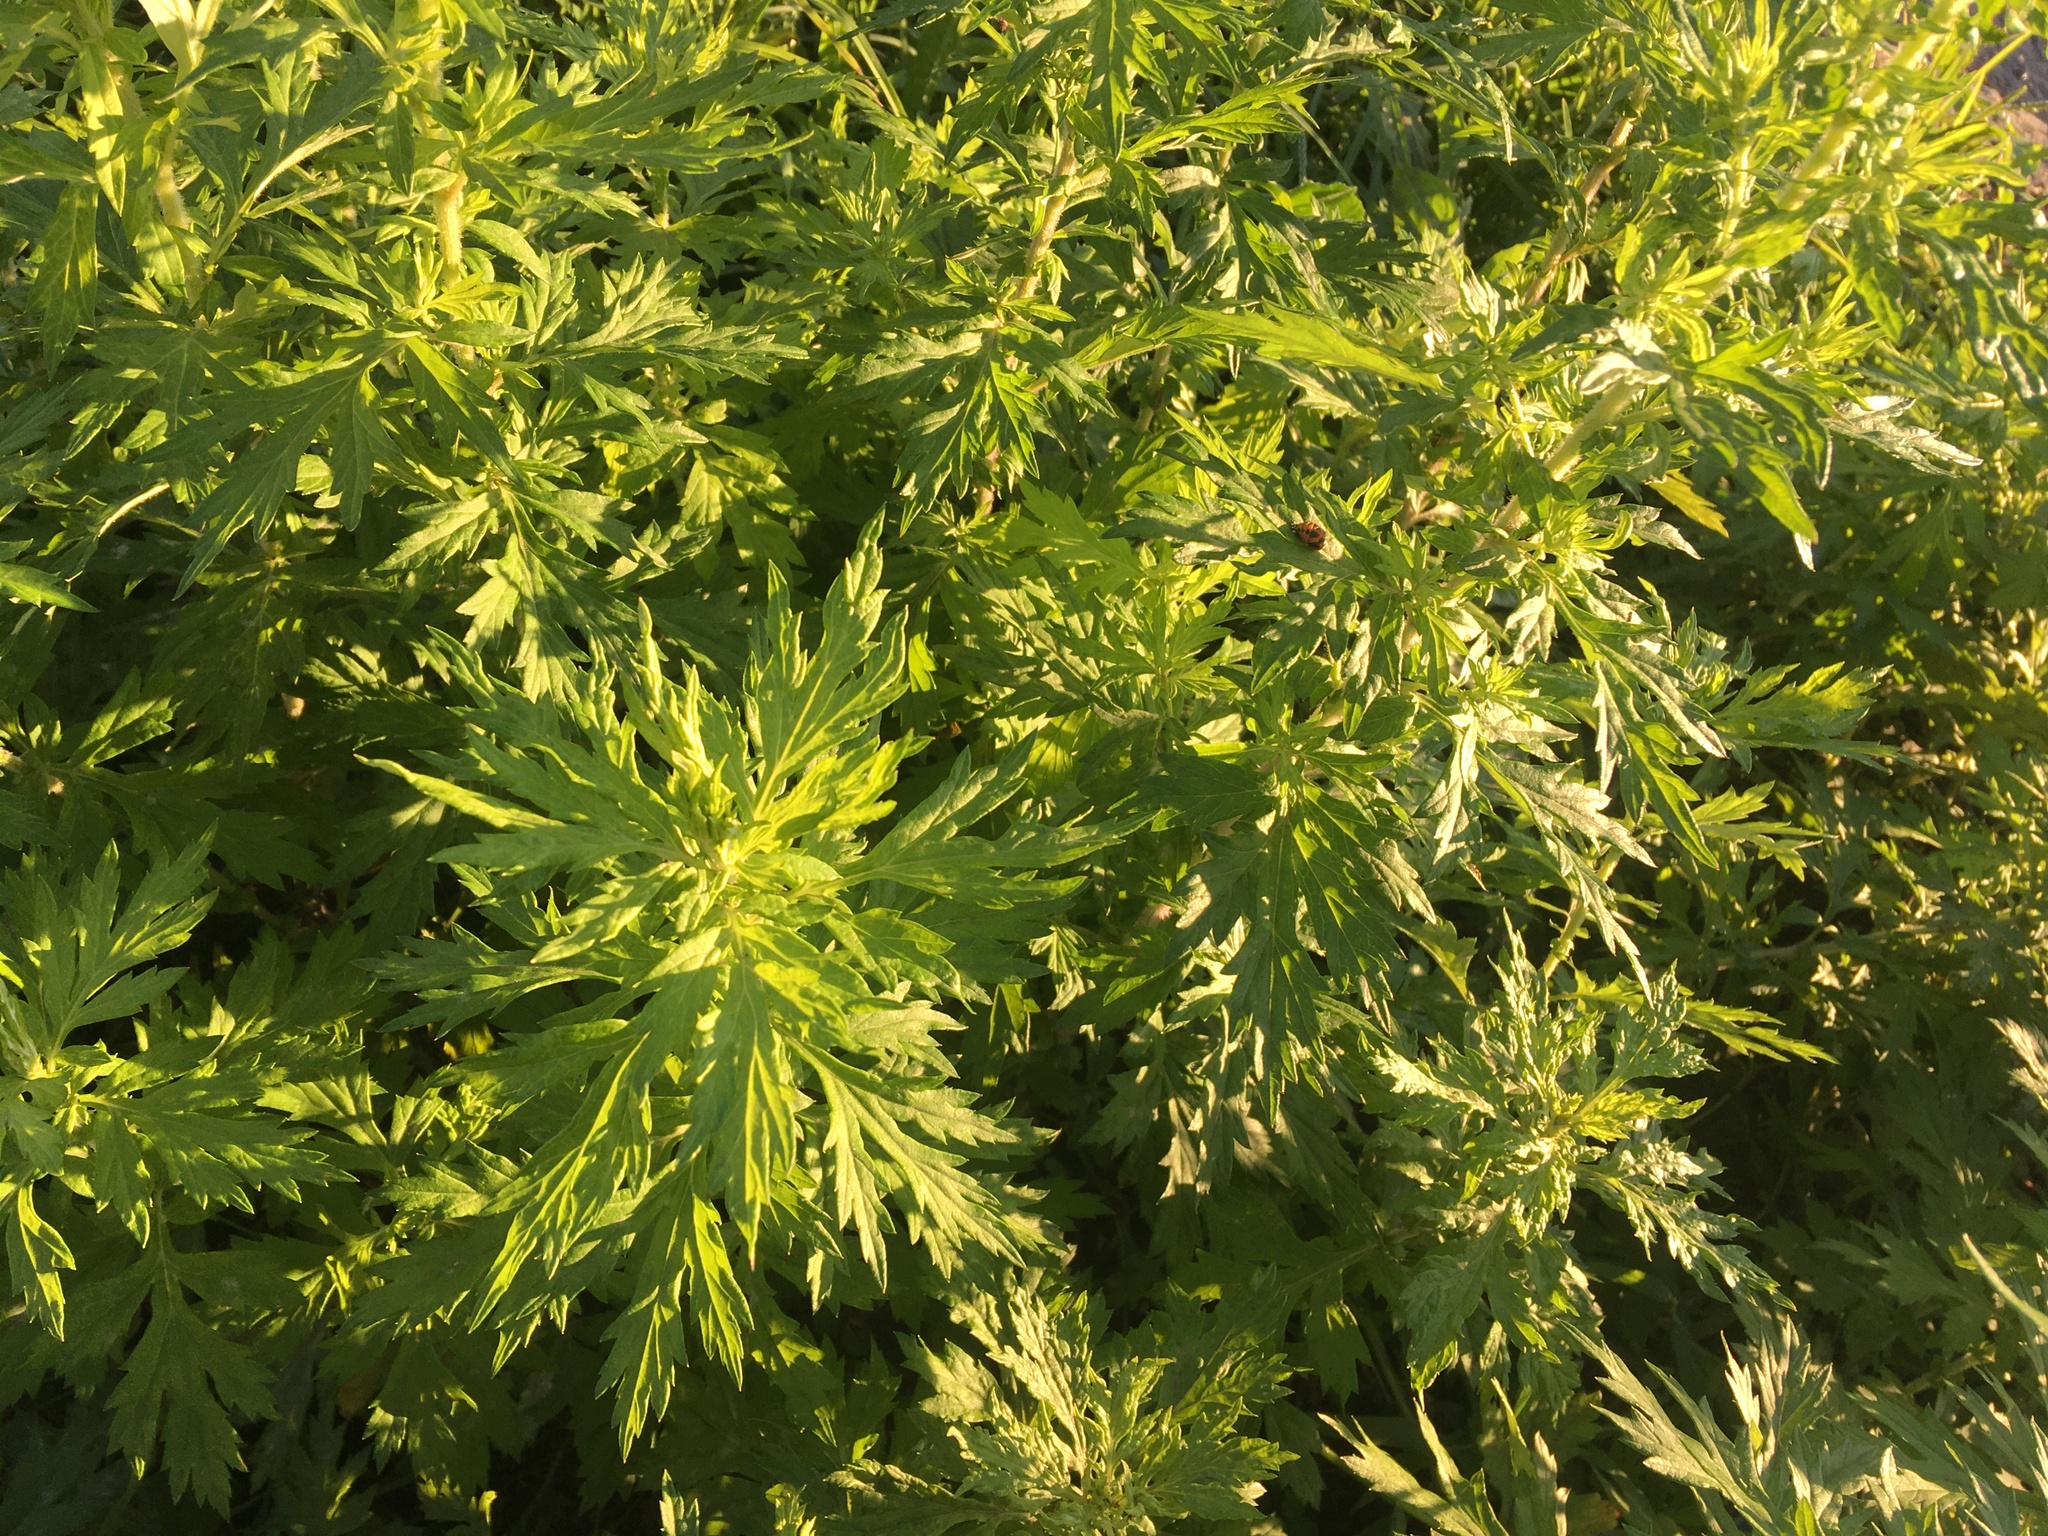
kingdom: Plantae
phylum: Tracheophyta
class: Magnoliopsida
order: Asterales
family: Asteraceae
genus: Artemisia
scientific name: Artemisia vulgaris
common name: Mugwort
